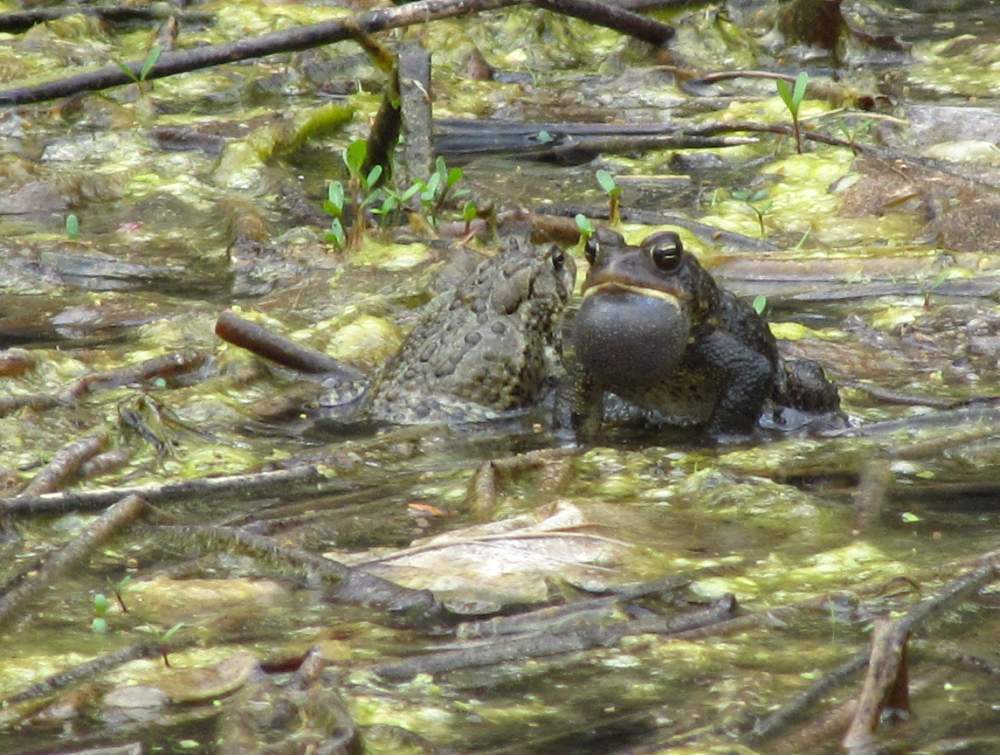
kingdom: Animalia
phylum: Chordata
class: Amphibia
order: Anura
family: Bufonidae
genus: Anaxyrus
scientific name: Anaxyrus americanus
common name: American toad
